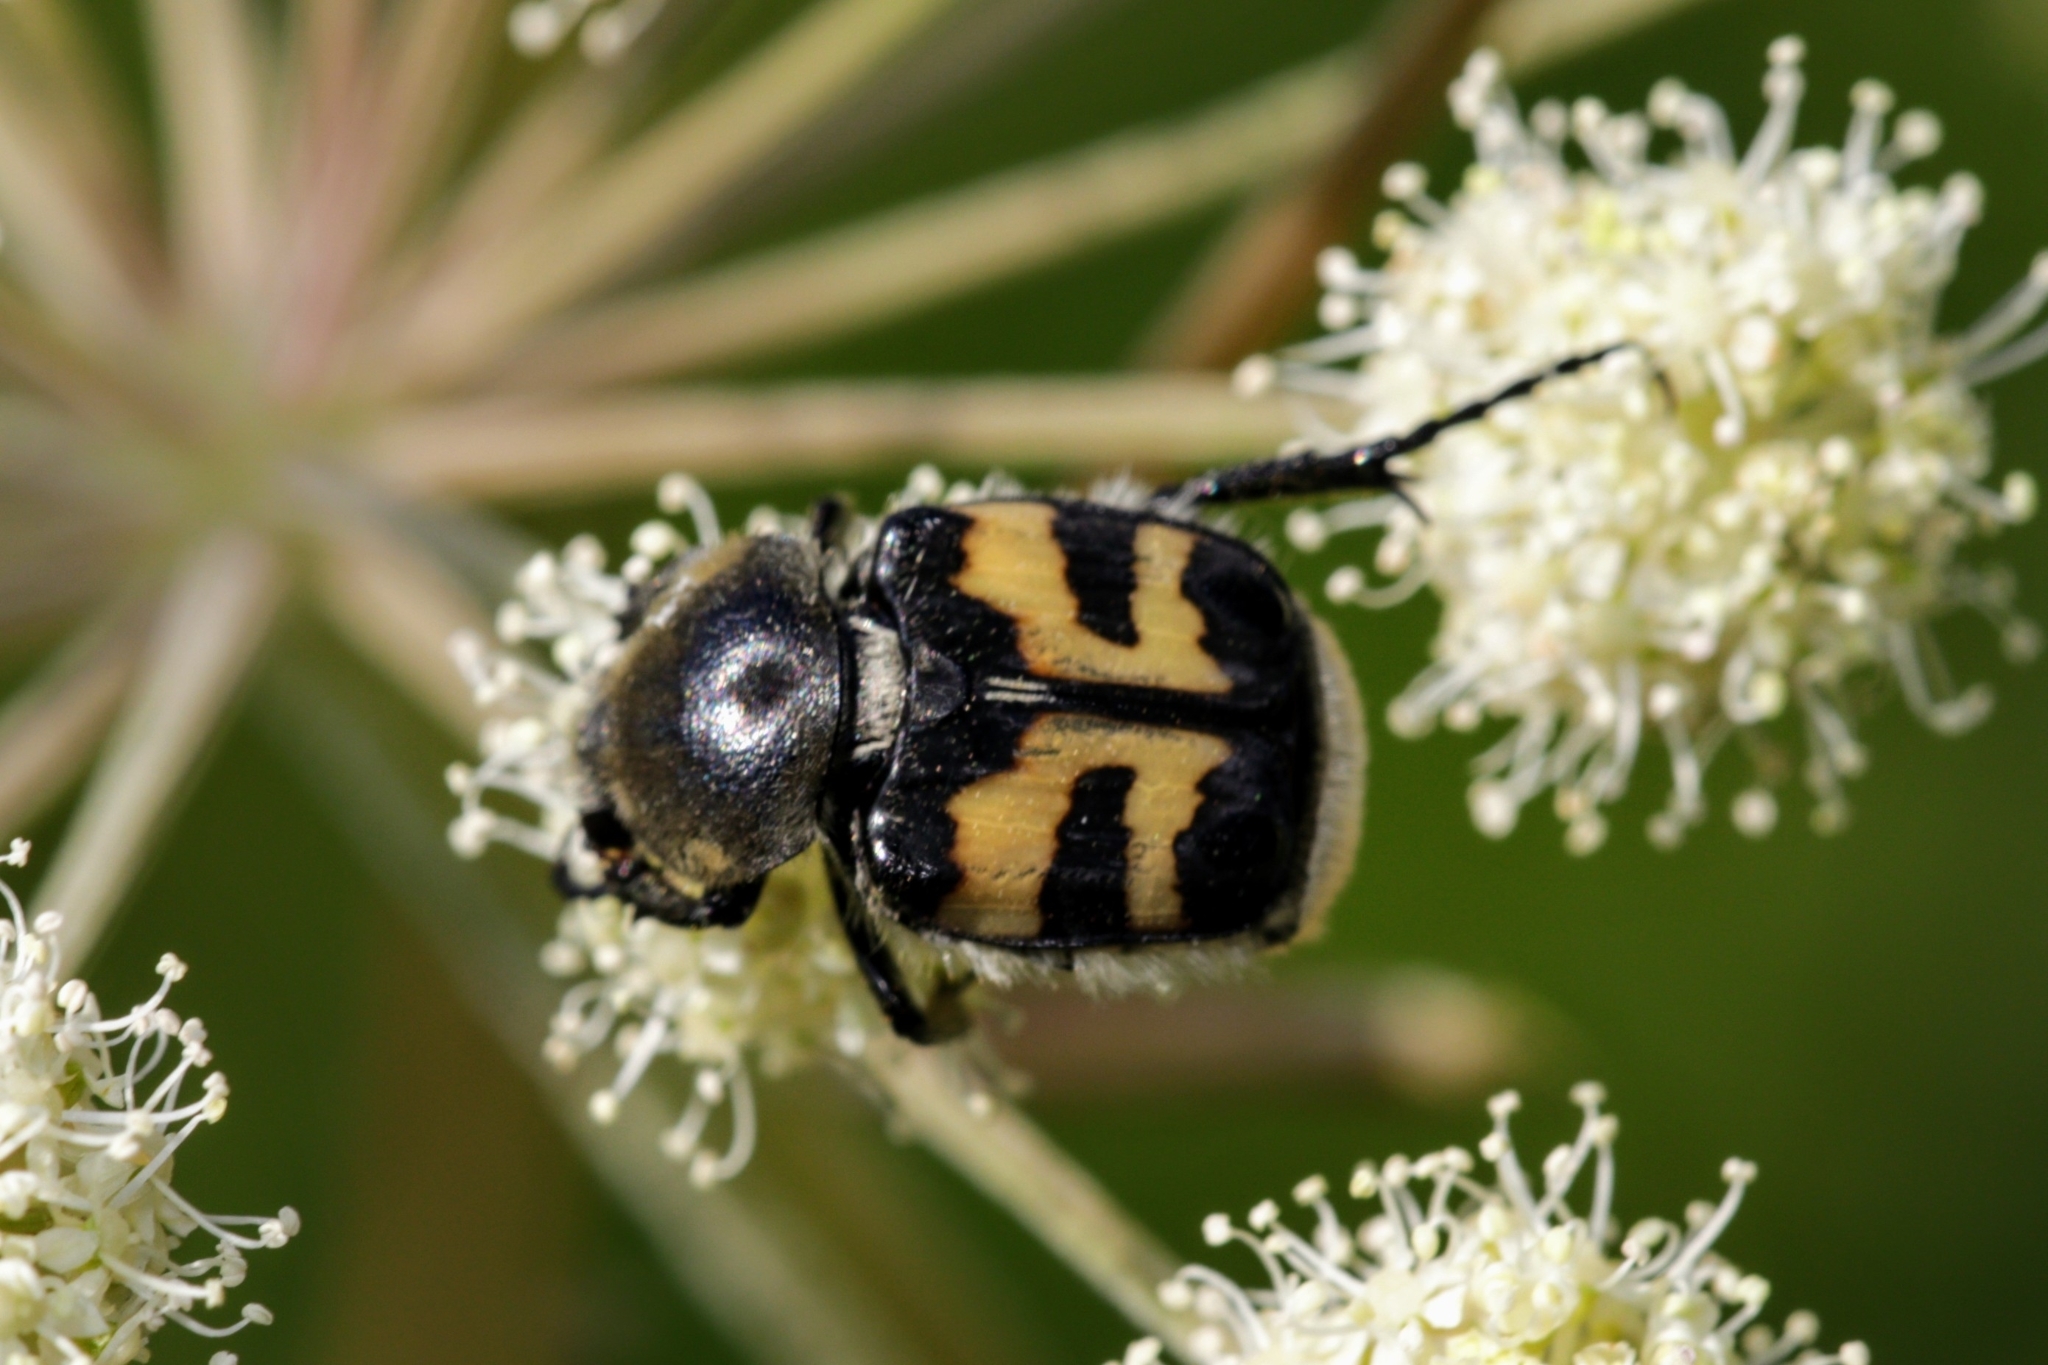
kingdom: Animalia
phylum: Arthropoda
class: Insecta
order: Coleoptera
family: Scarabaeidae
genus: Trichius
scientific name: Trichius fasciatus
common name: Bee beetle
